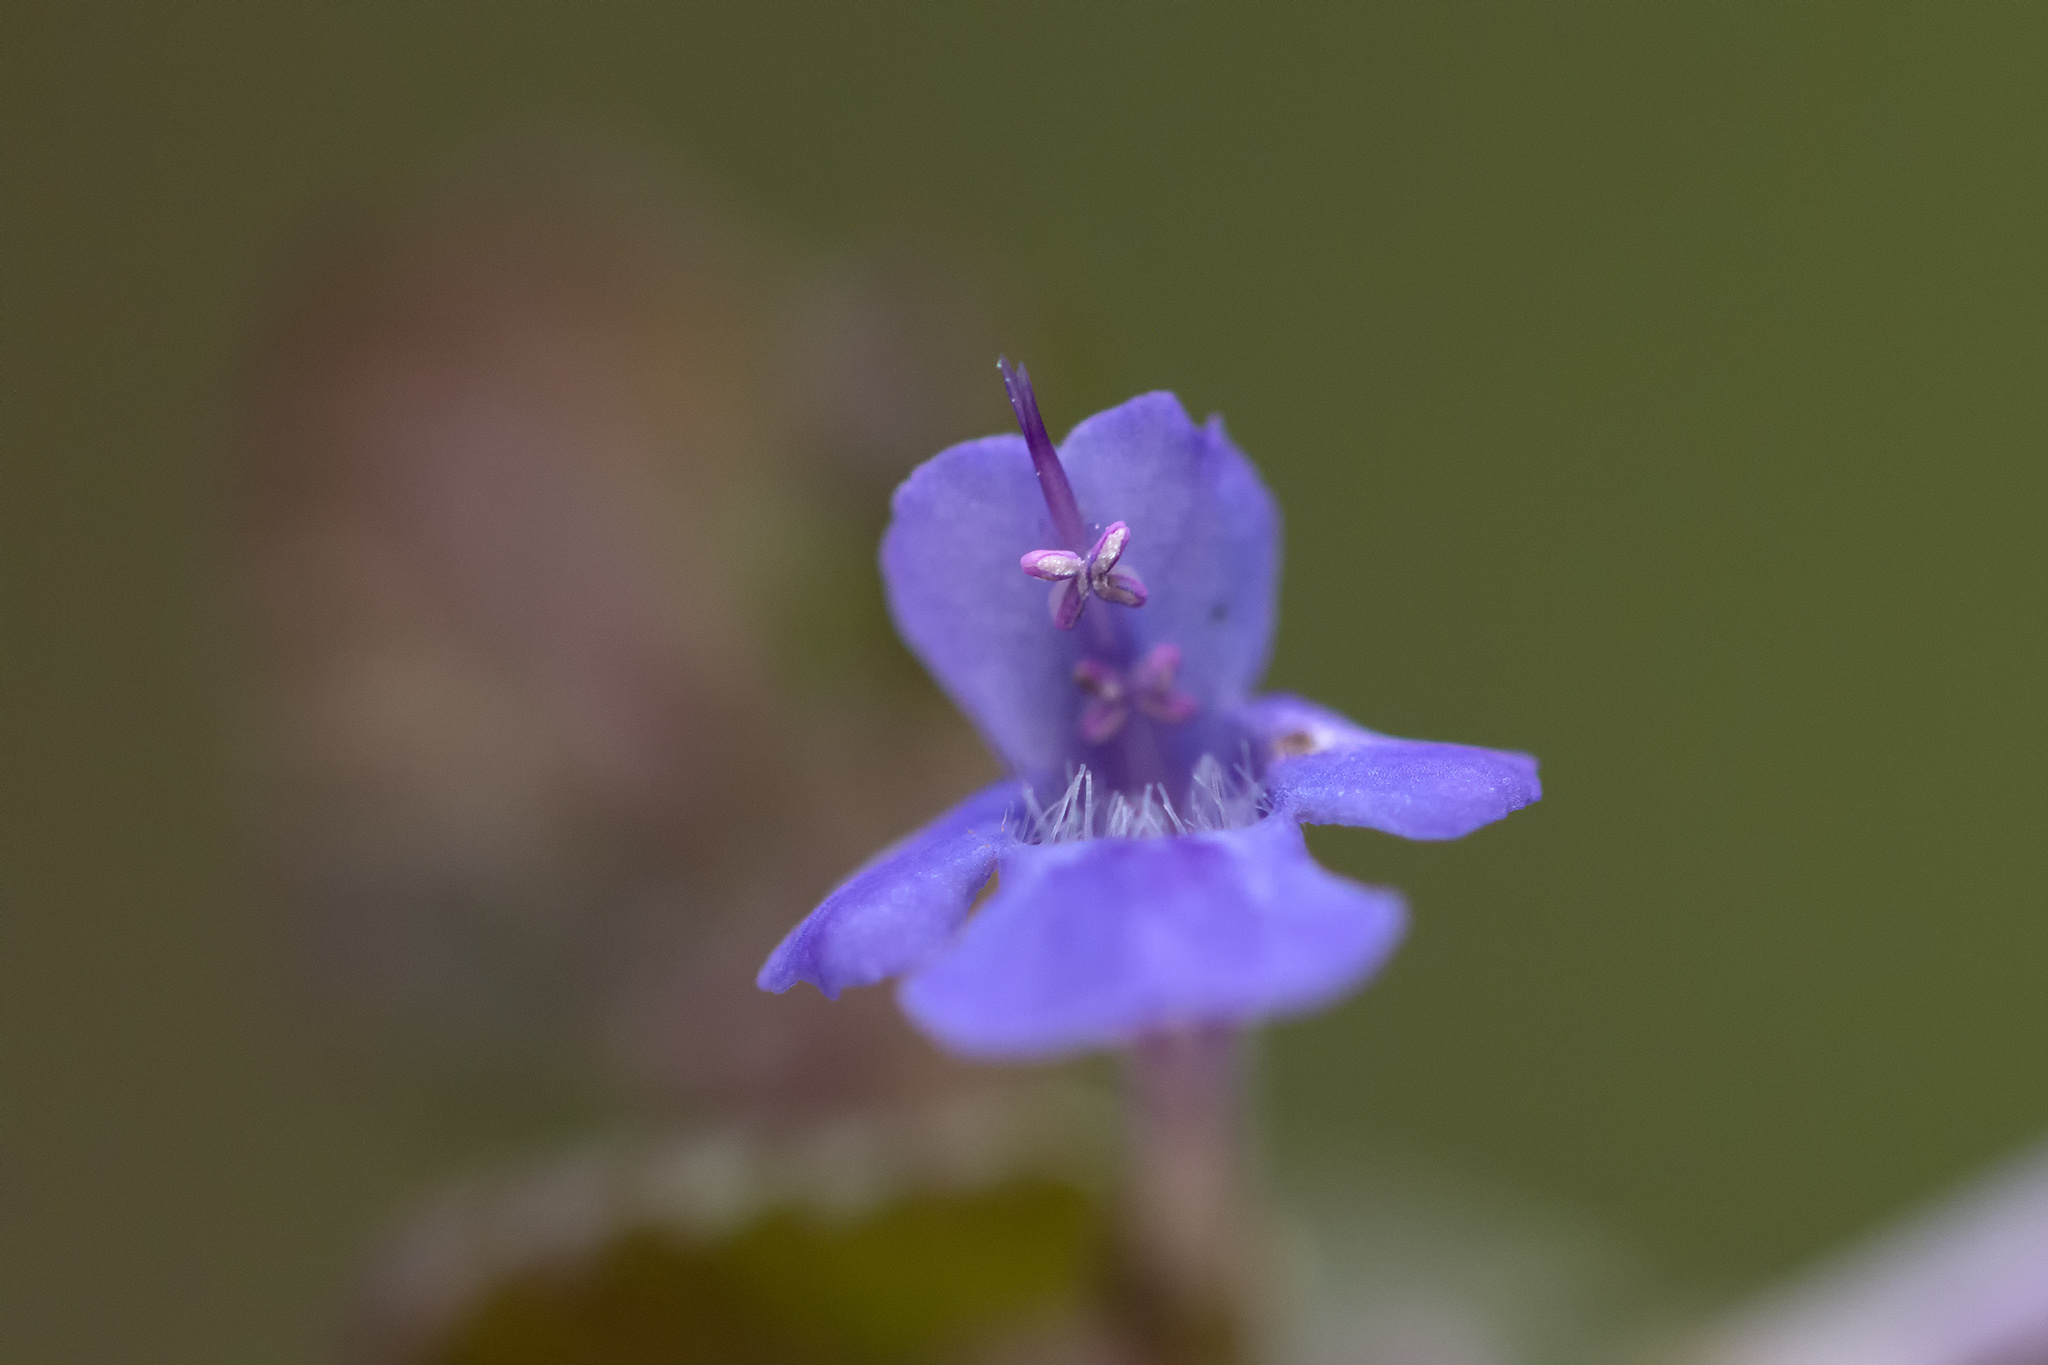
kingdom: Plantae
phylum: Tracheophyta
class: Magnoliopsida
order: Lamiales
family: Lamiaceae
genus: Glechoma
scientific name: Glechoma hederacea
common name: Ground ivy
